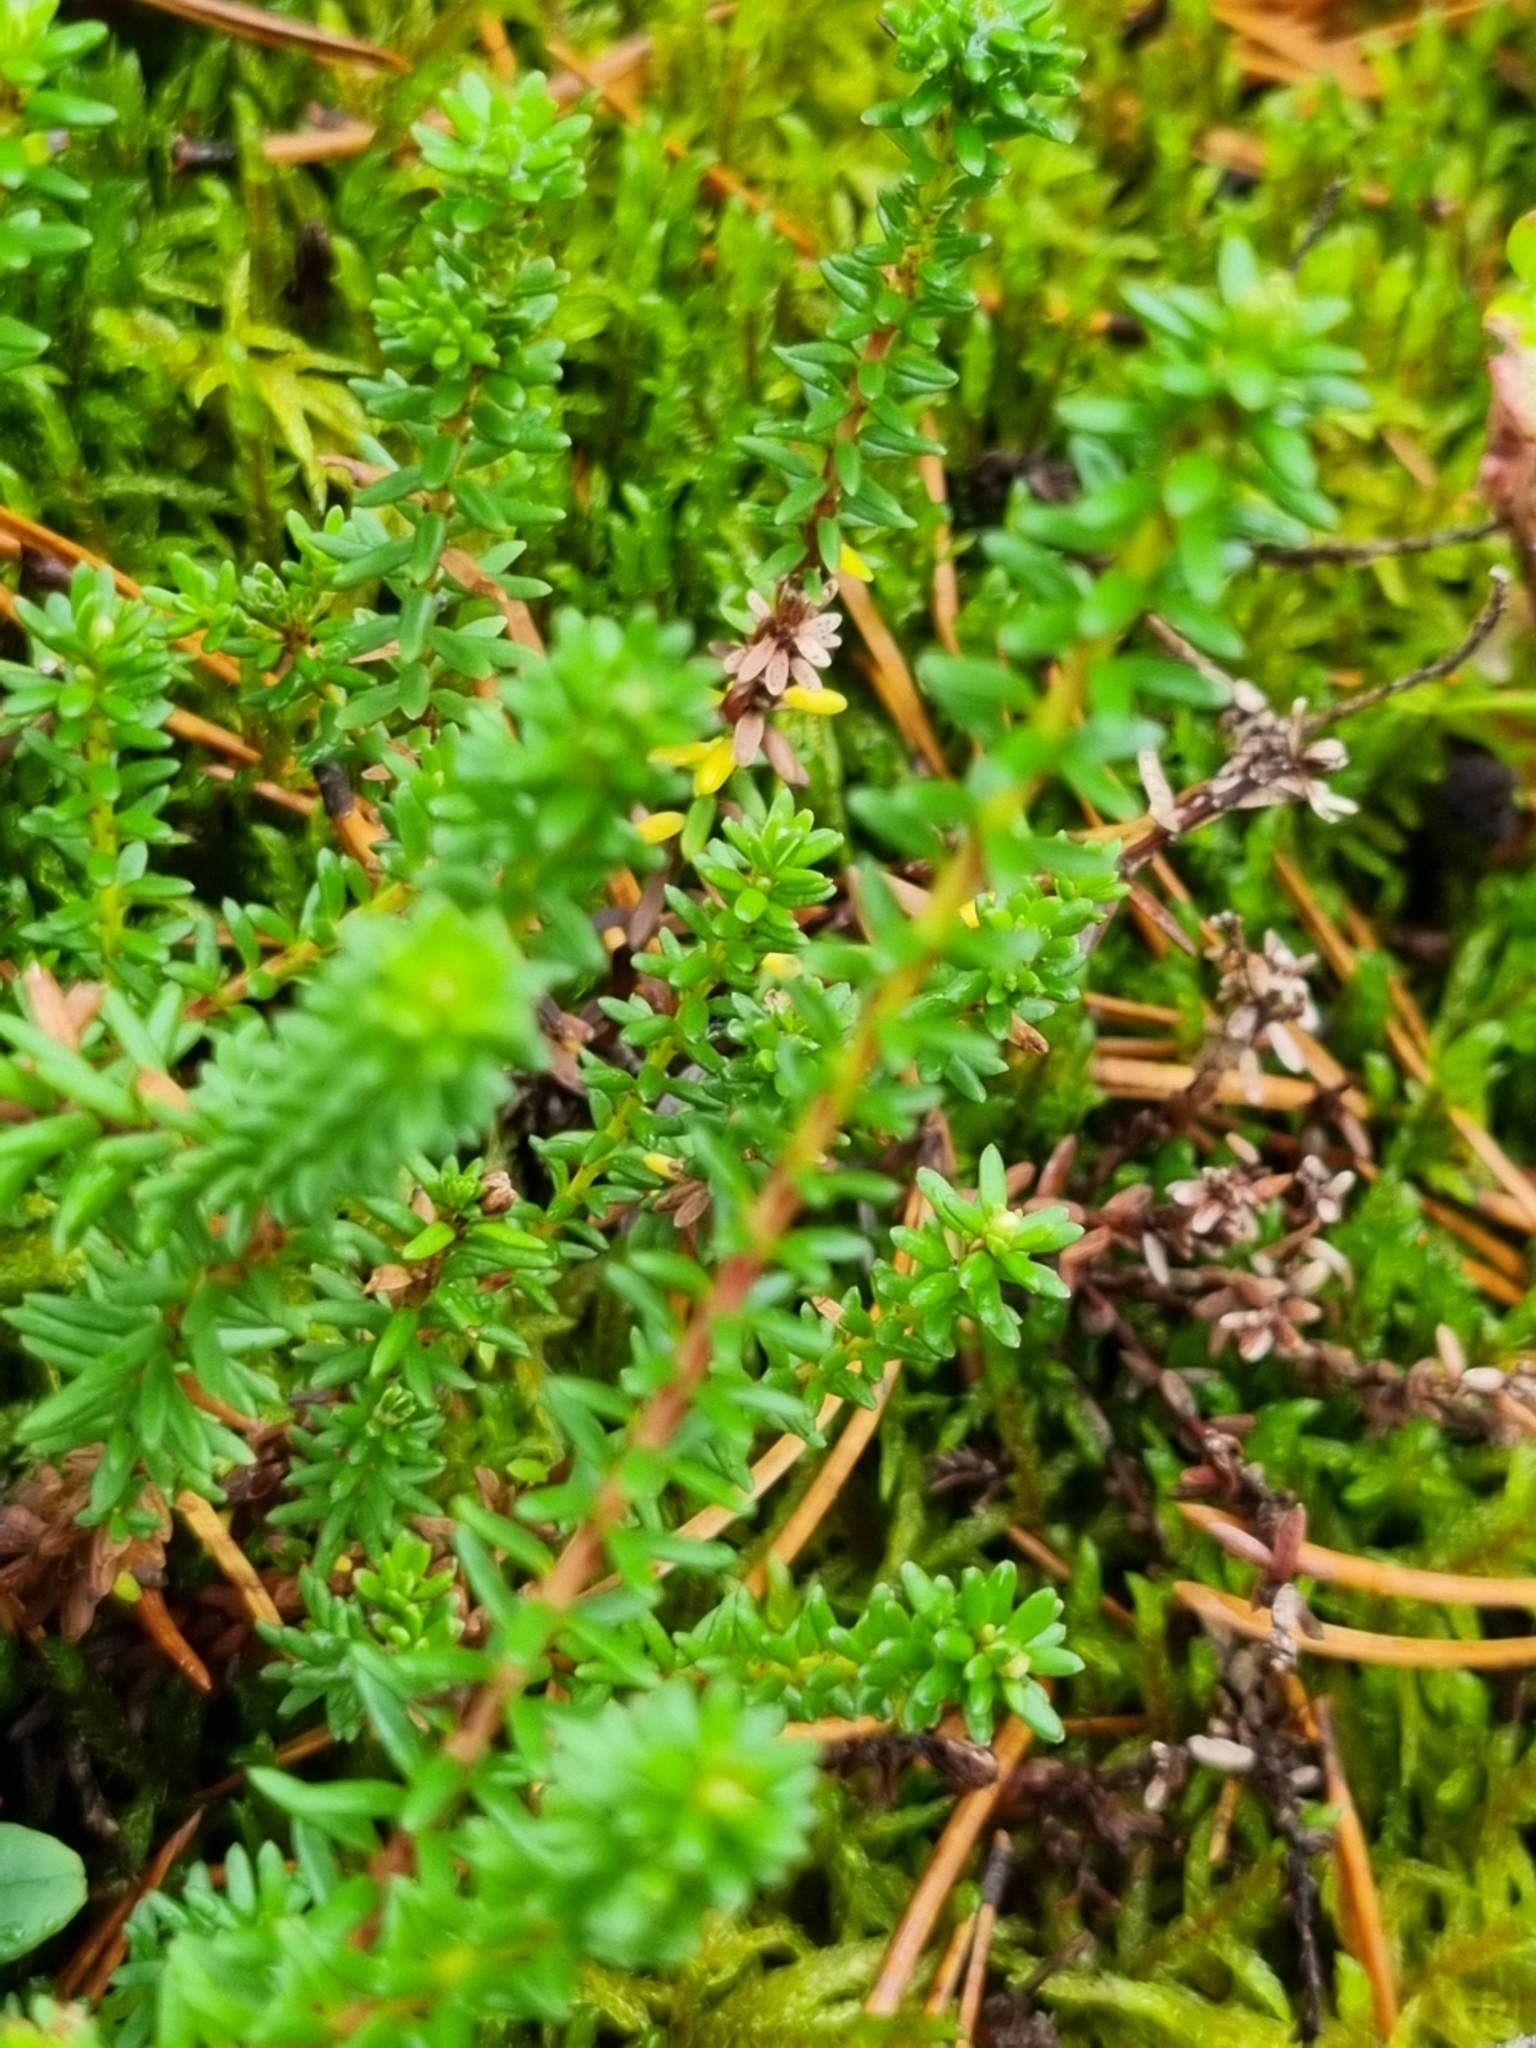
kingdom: Plantae
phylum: Tracheophyta
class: Magnoliopsida
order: Ericales
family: Ericaceae
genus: Empetrum
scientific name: Empetrum nigrum
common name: Black crowberry
